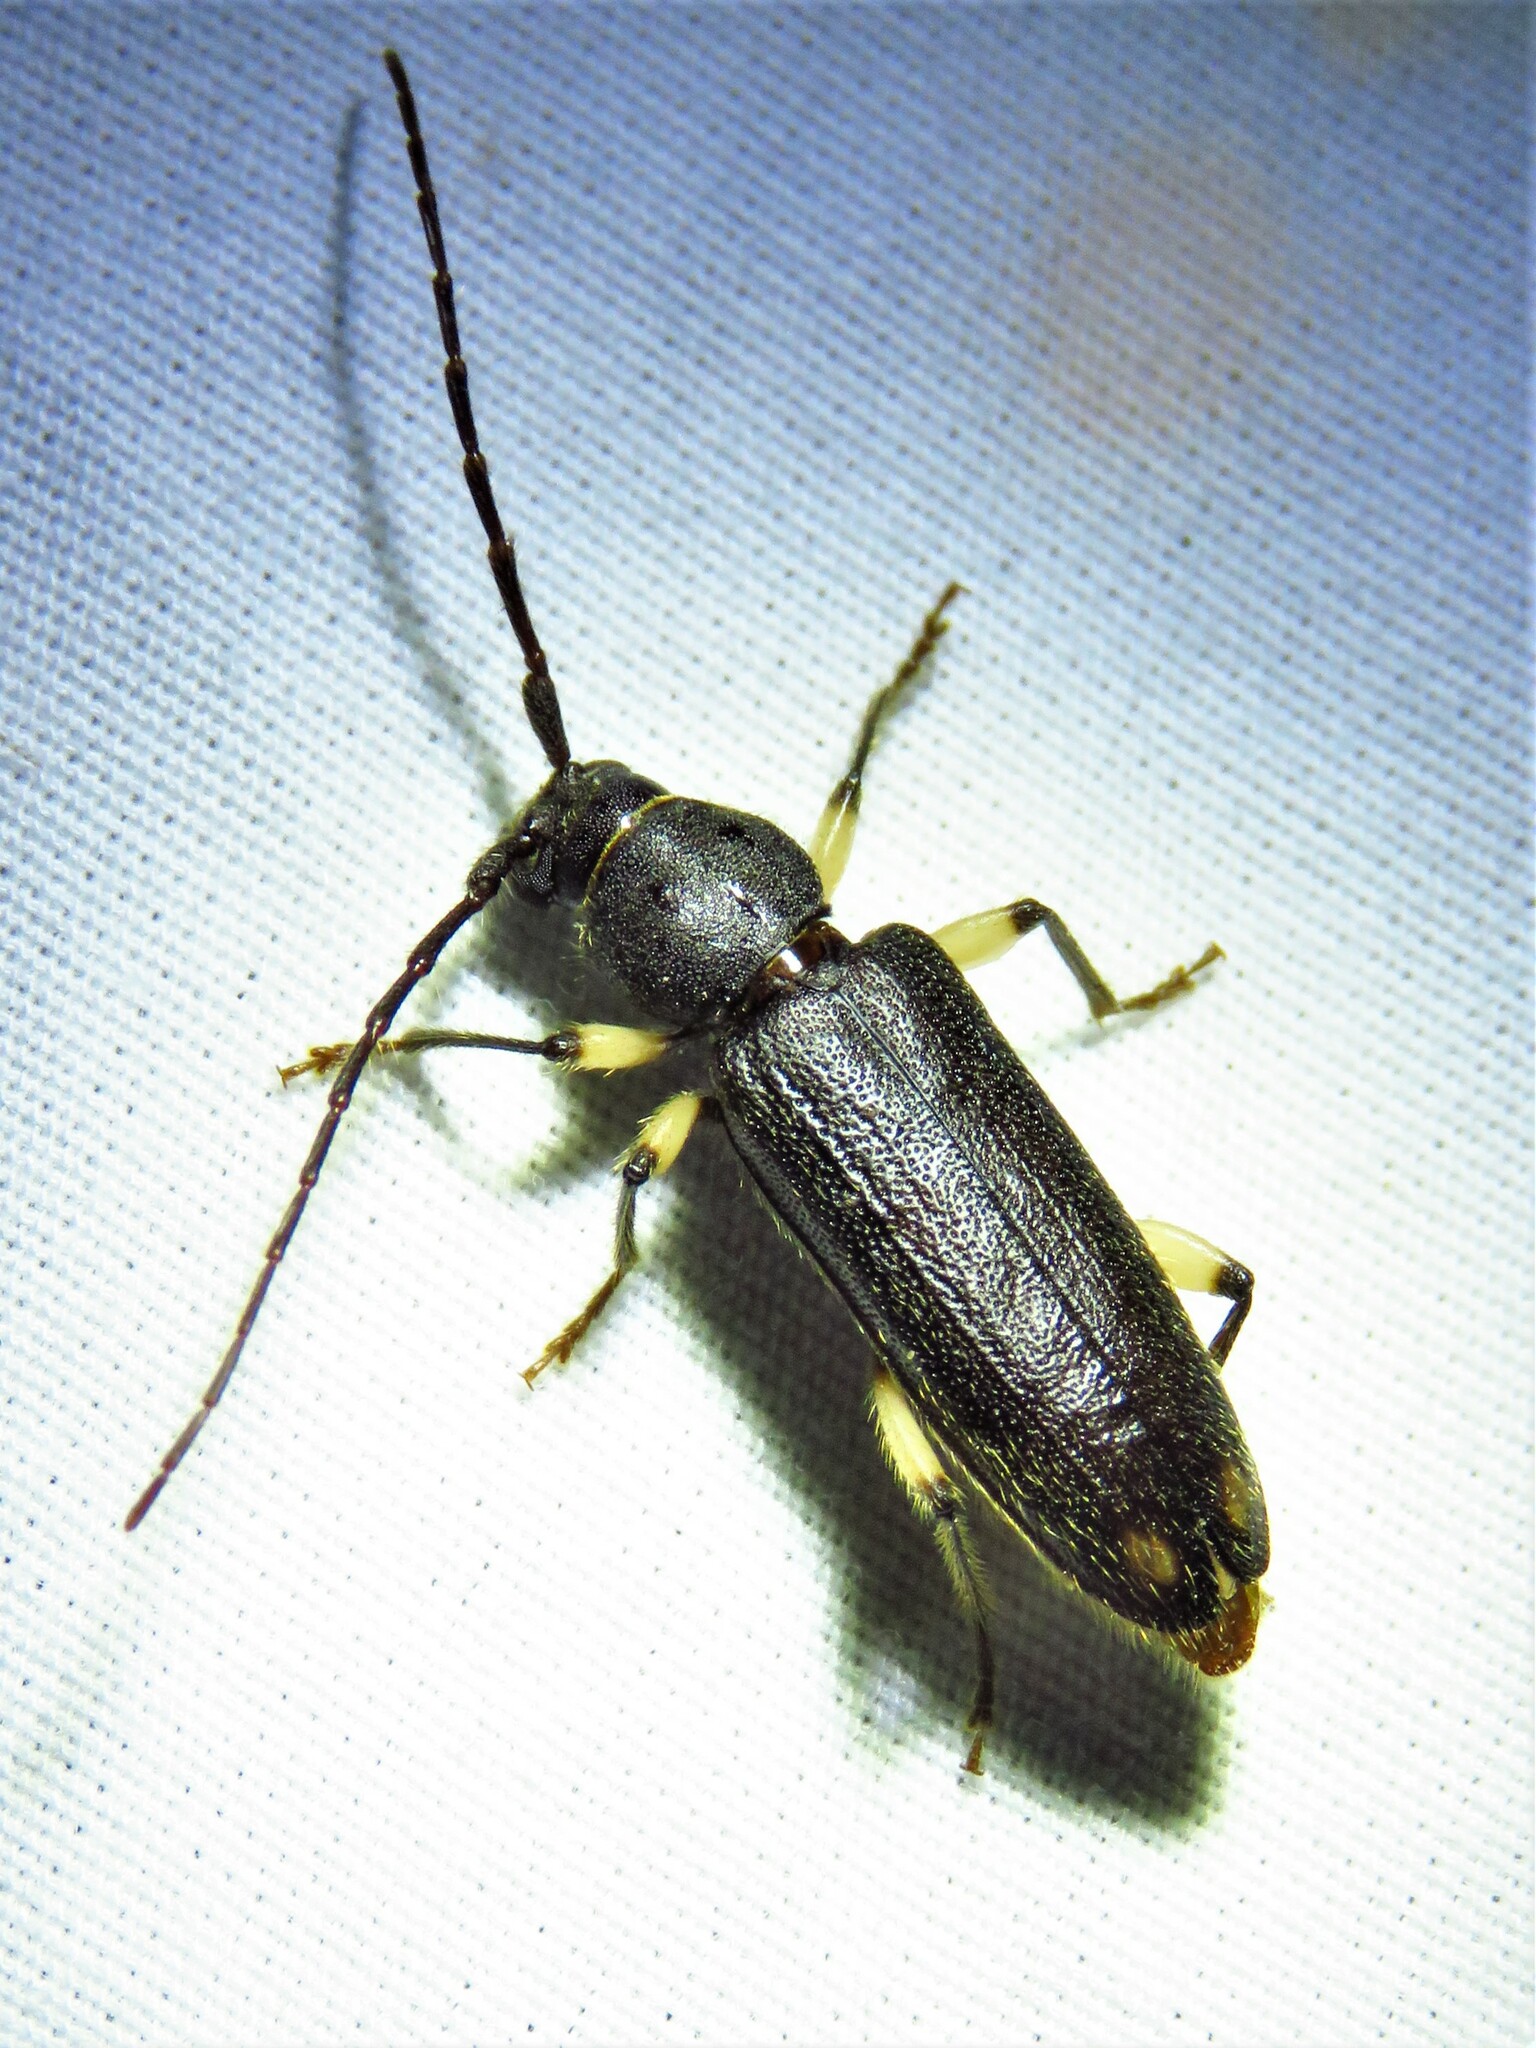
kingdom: Animalia
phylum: Arthropoda
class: Insecta
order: Coleoptera
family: Cerambycidae
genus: Tylonotus
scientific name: Tylonotus bimaculatus
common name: Ash and privet borer
